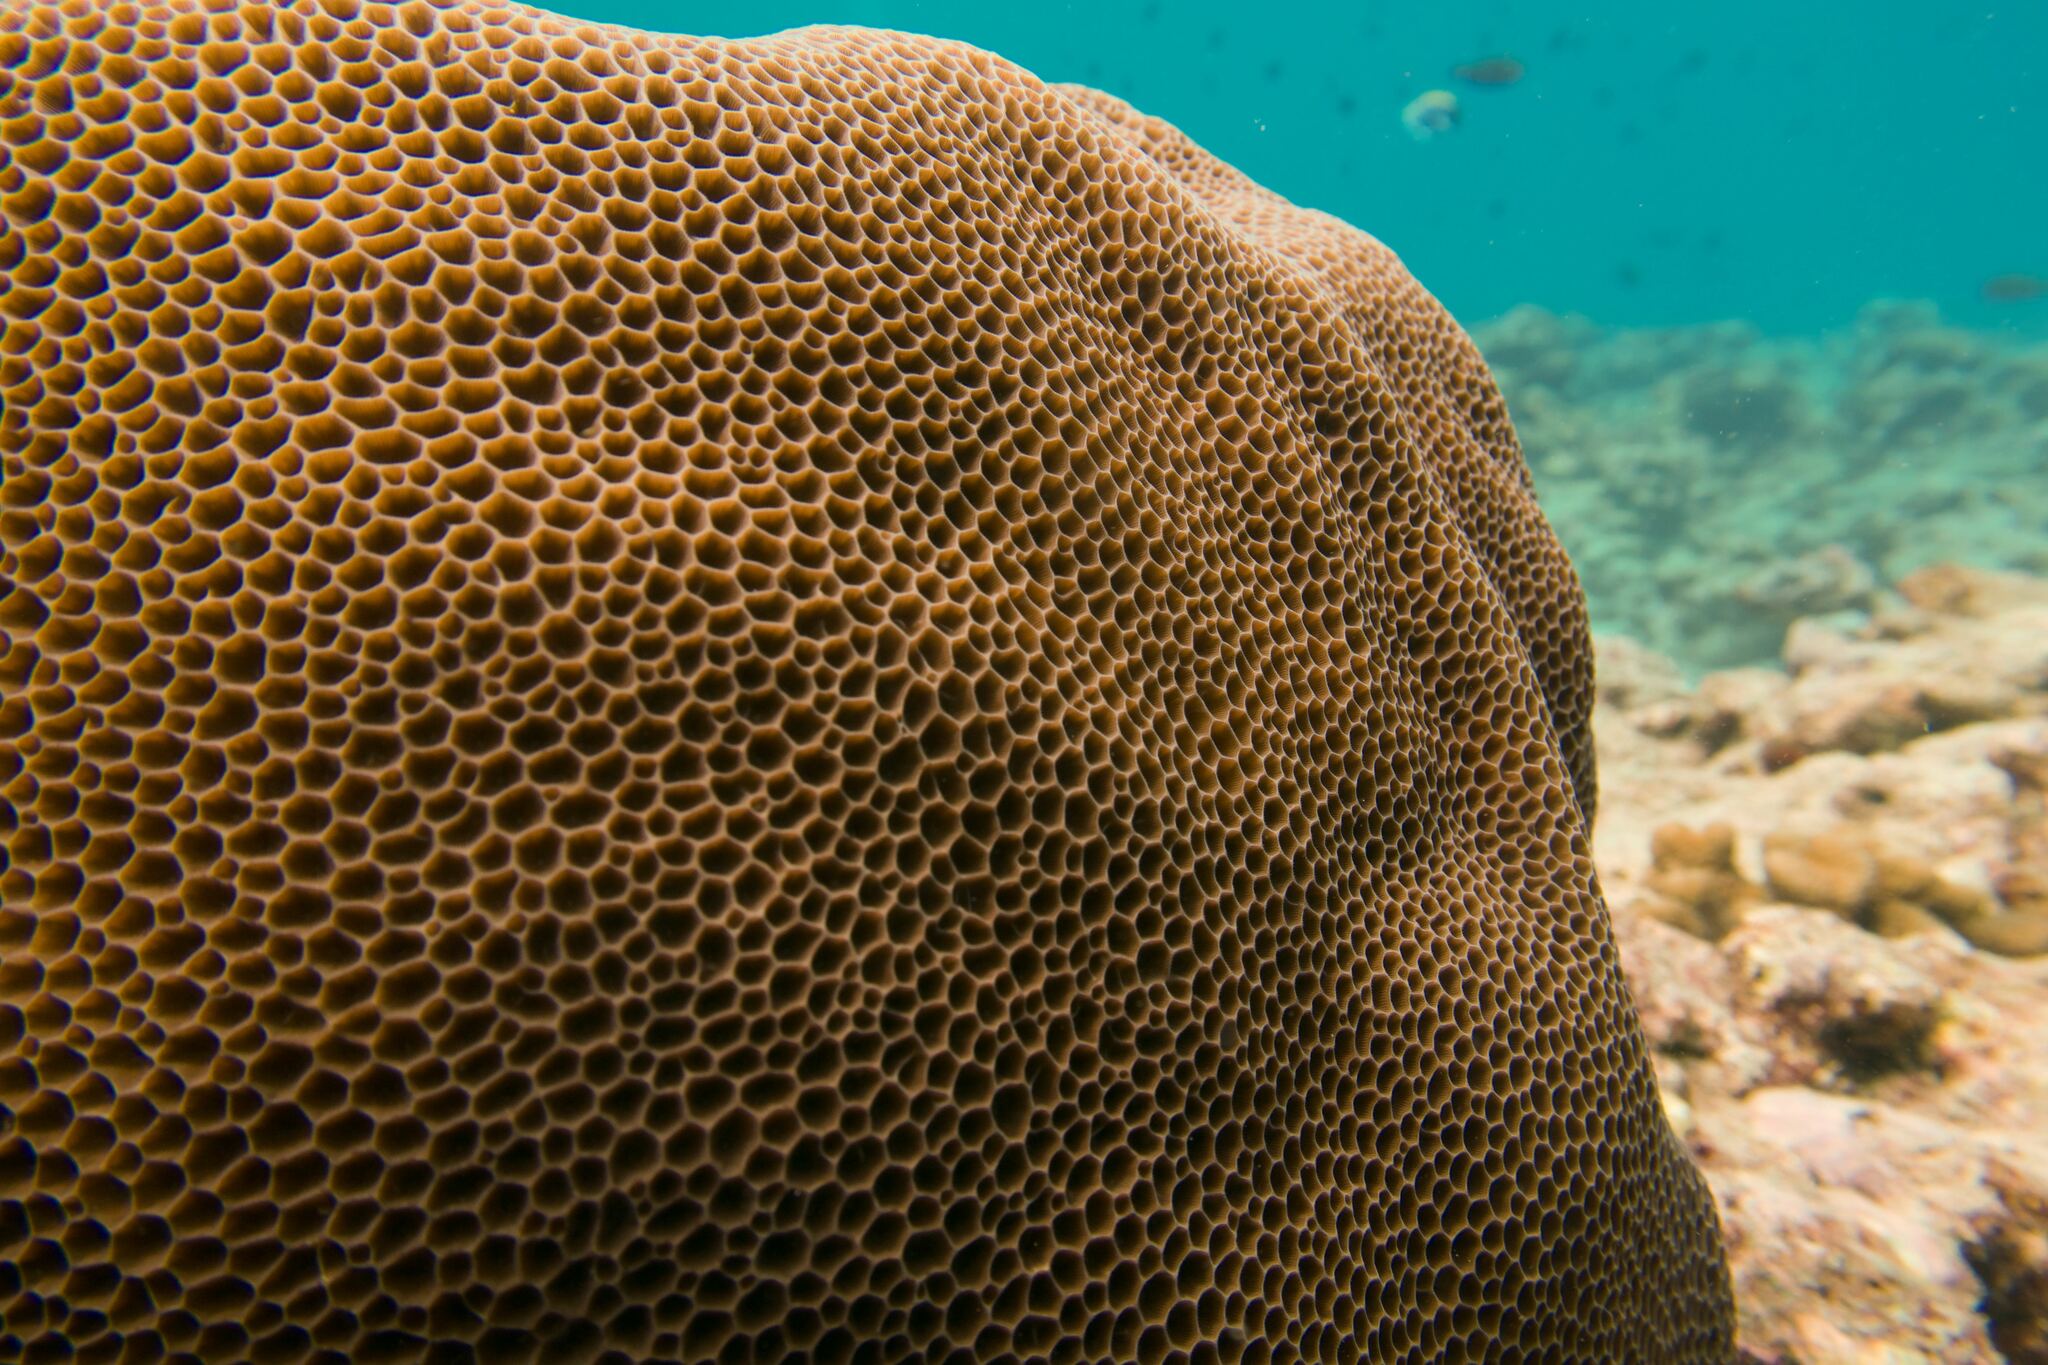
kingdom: Animalia
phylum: Cnidaria
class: Anthozoa
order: Scleractinia
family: Agariciidae
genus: Gardineroseris
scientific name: Gardineroseris planulata
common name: Gardiner's coral
